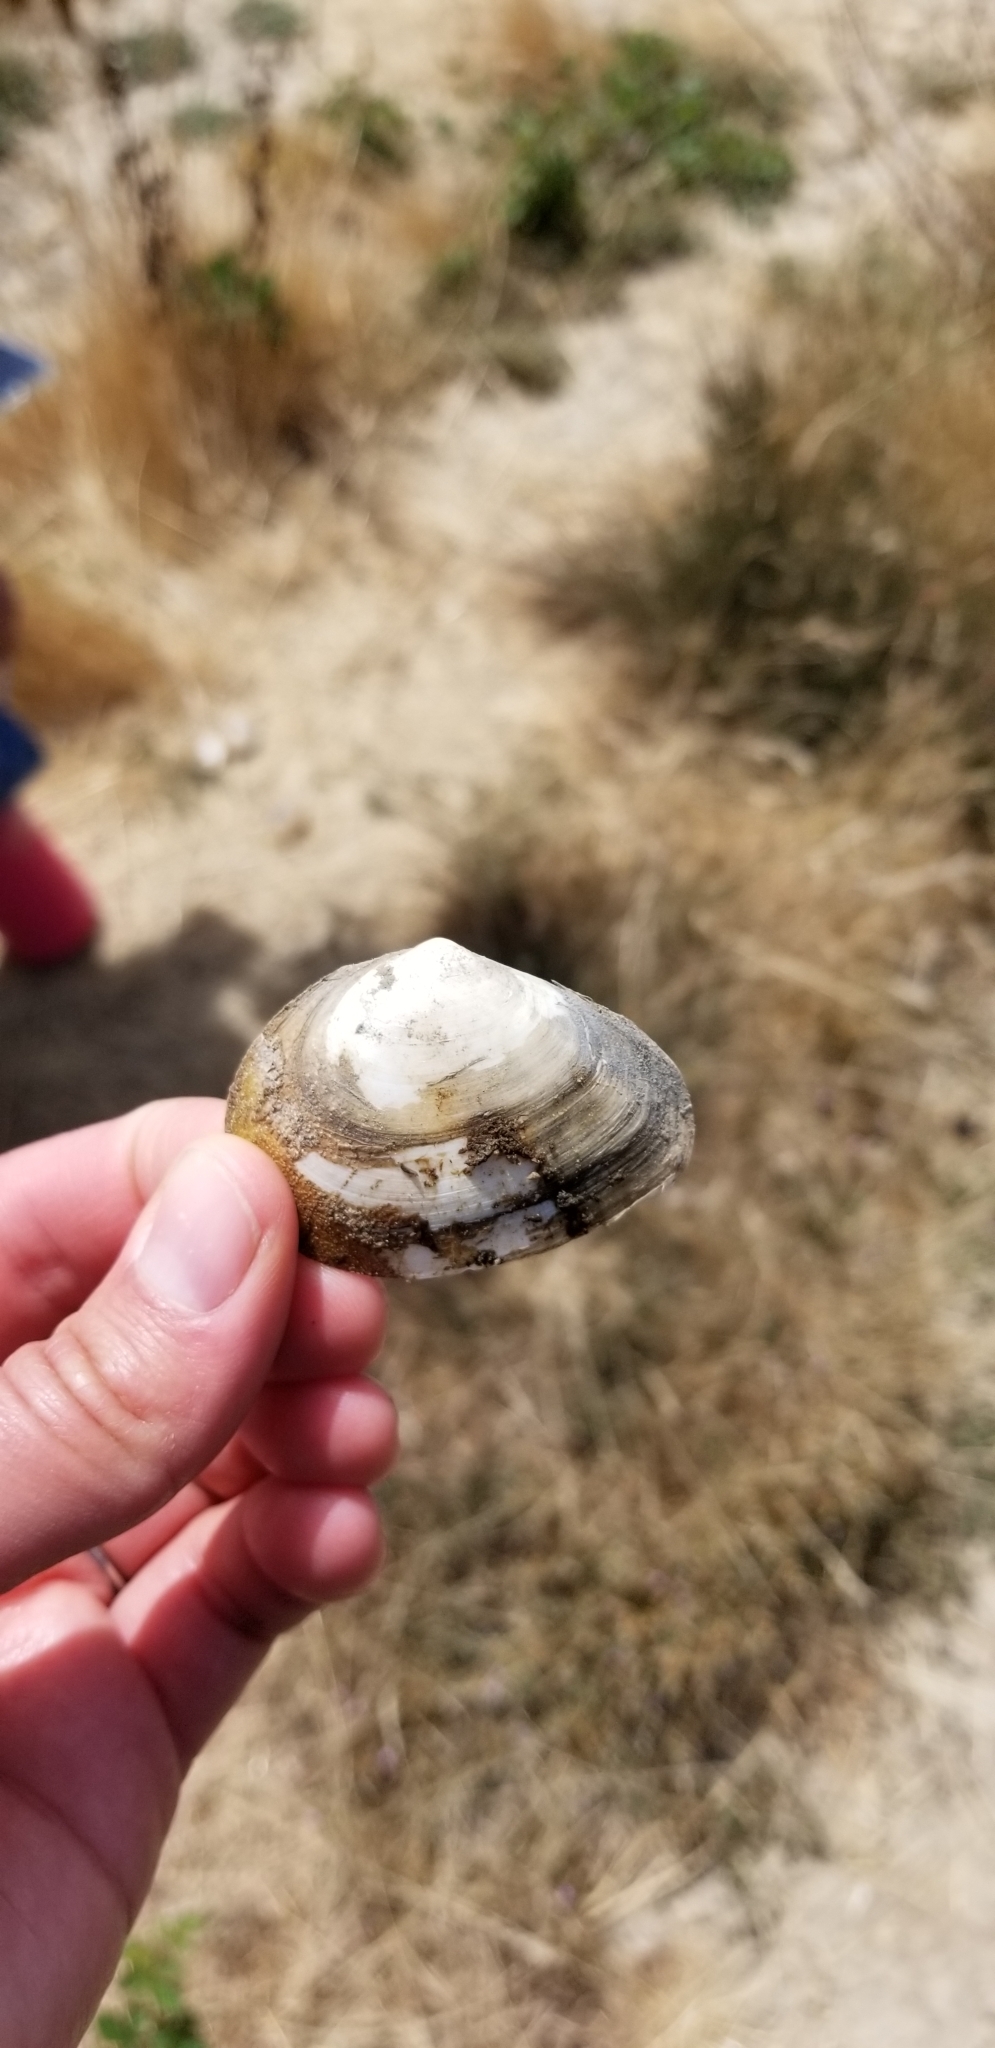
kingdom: Animalia
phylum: Mollusca
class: Bivalvia
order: Cardiida
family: Tellinidae
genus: Macoma
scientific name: Macoma nasuta
